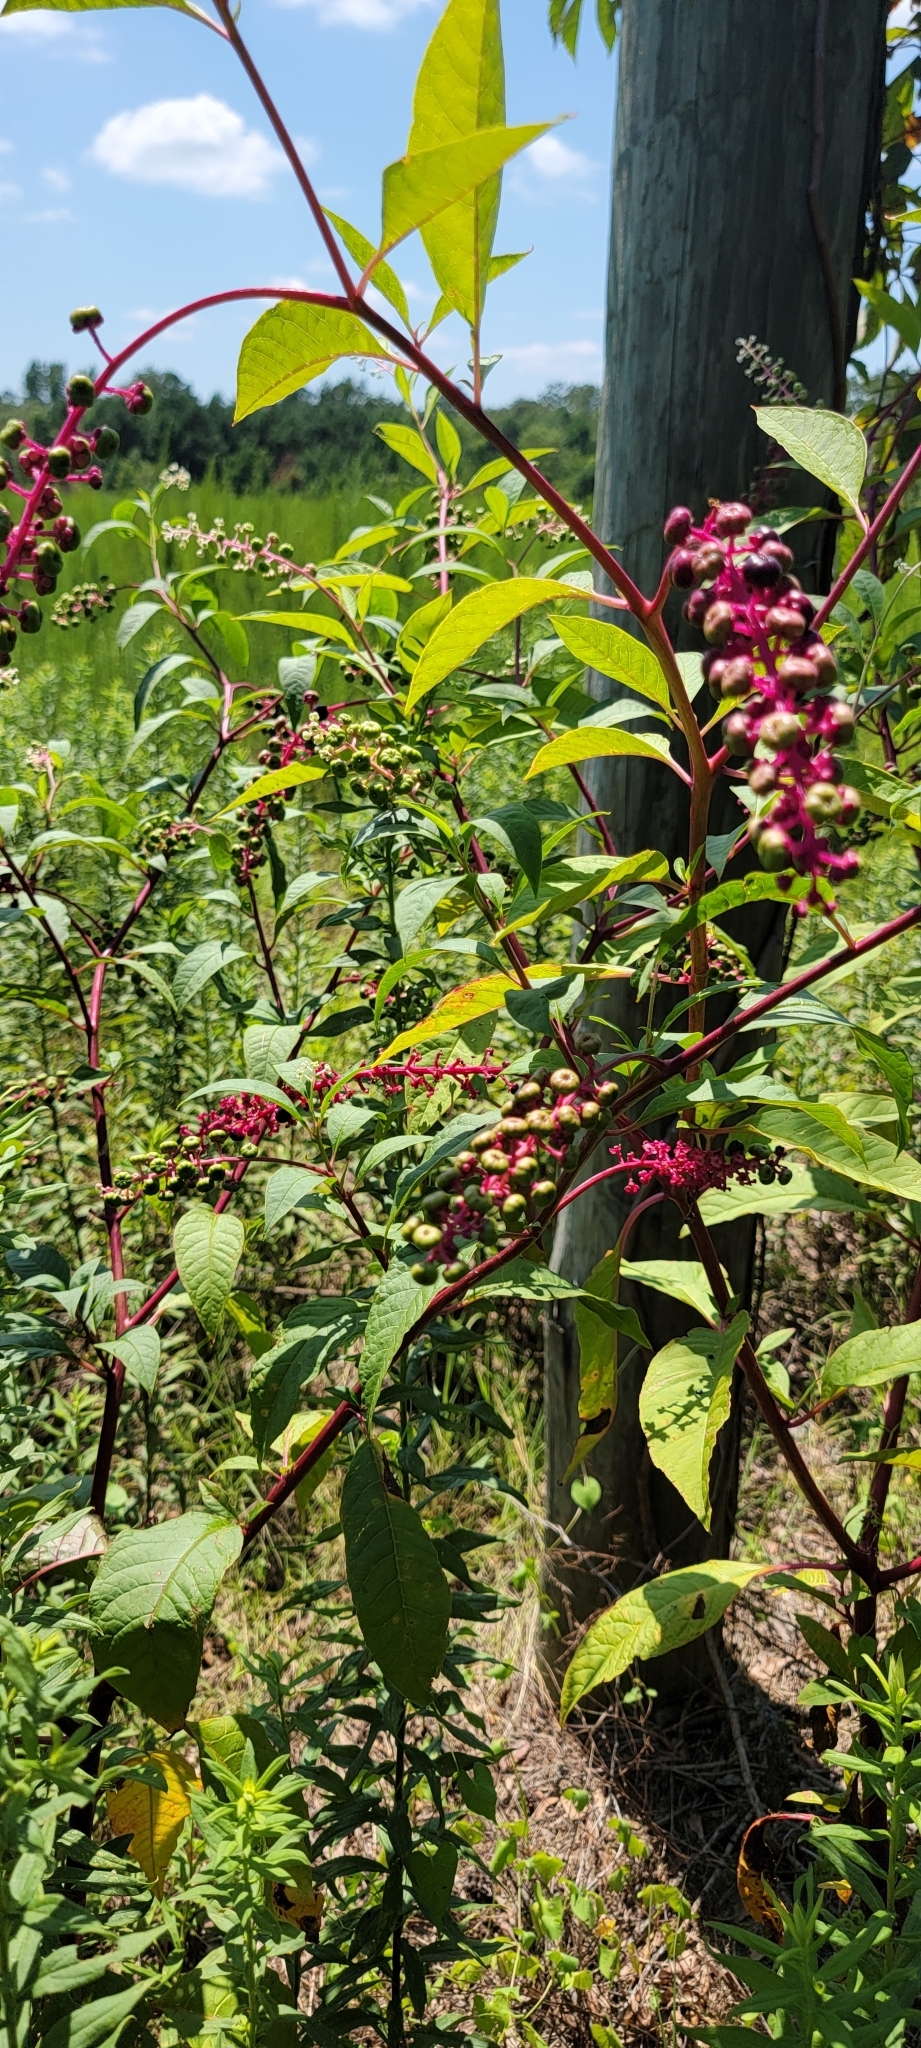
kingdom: Plantae
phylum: Tracheophyta
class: Magnoliopsida
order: Caryophyllales
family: Phytolaccaceae
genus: Phytolacca
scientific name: Phytolacca americana
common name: American pokeweed
